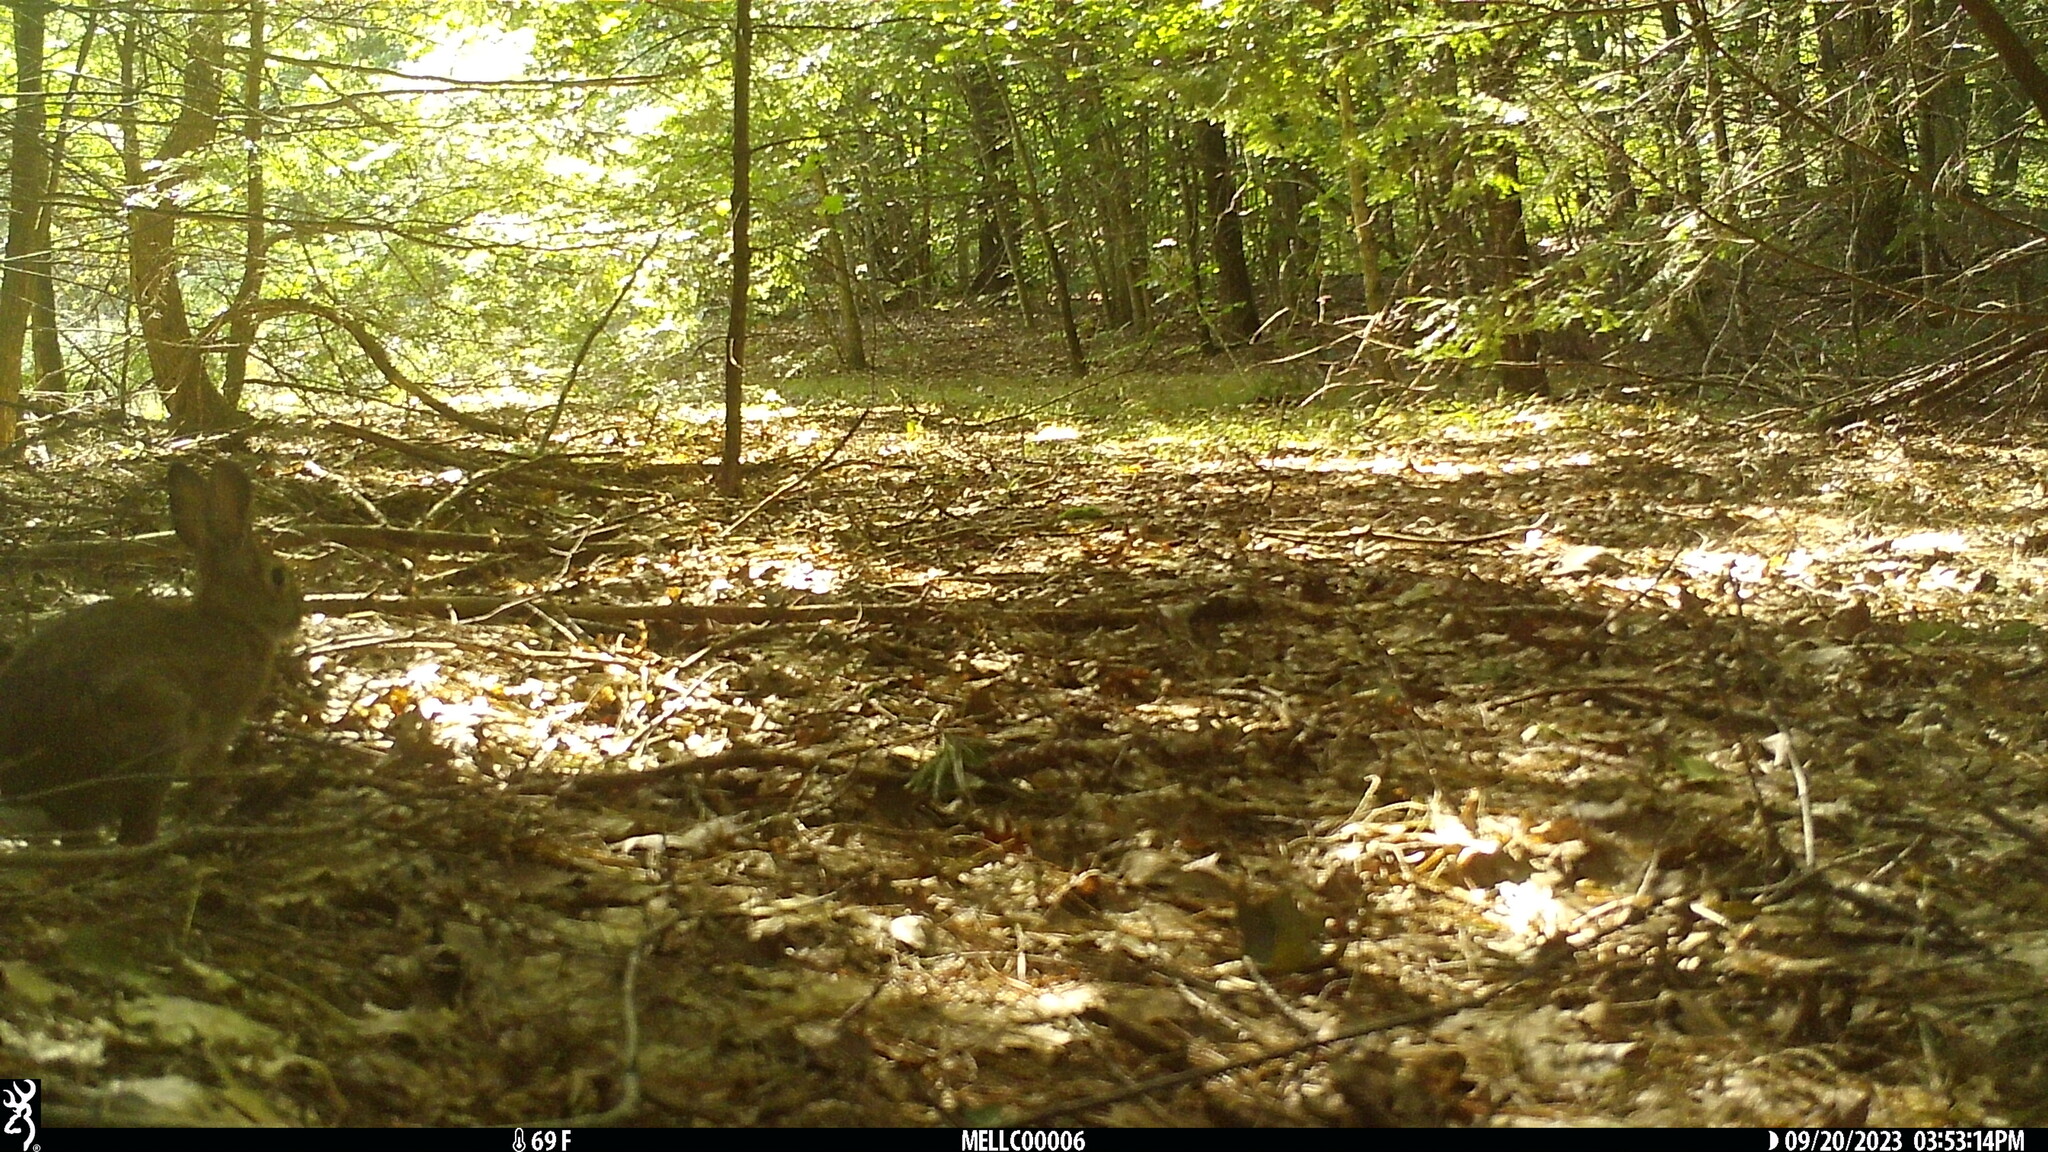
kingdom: Animalia
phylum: Chordata
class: Mammalia
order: Lagomorpha
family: Leporidae
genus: Sylvilagus
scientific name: Sylvilagus floridanus
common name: Eastern cottontail
